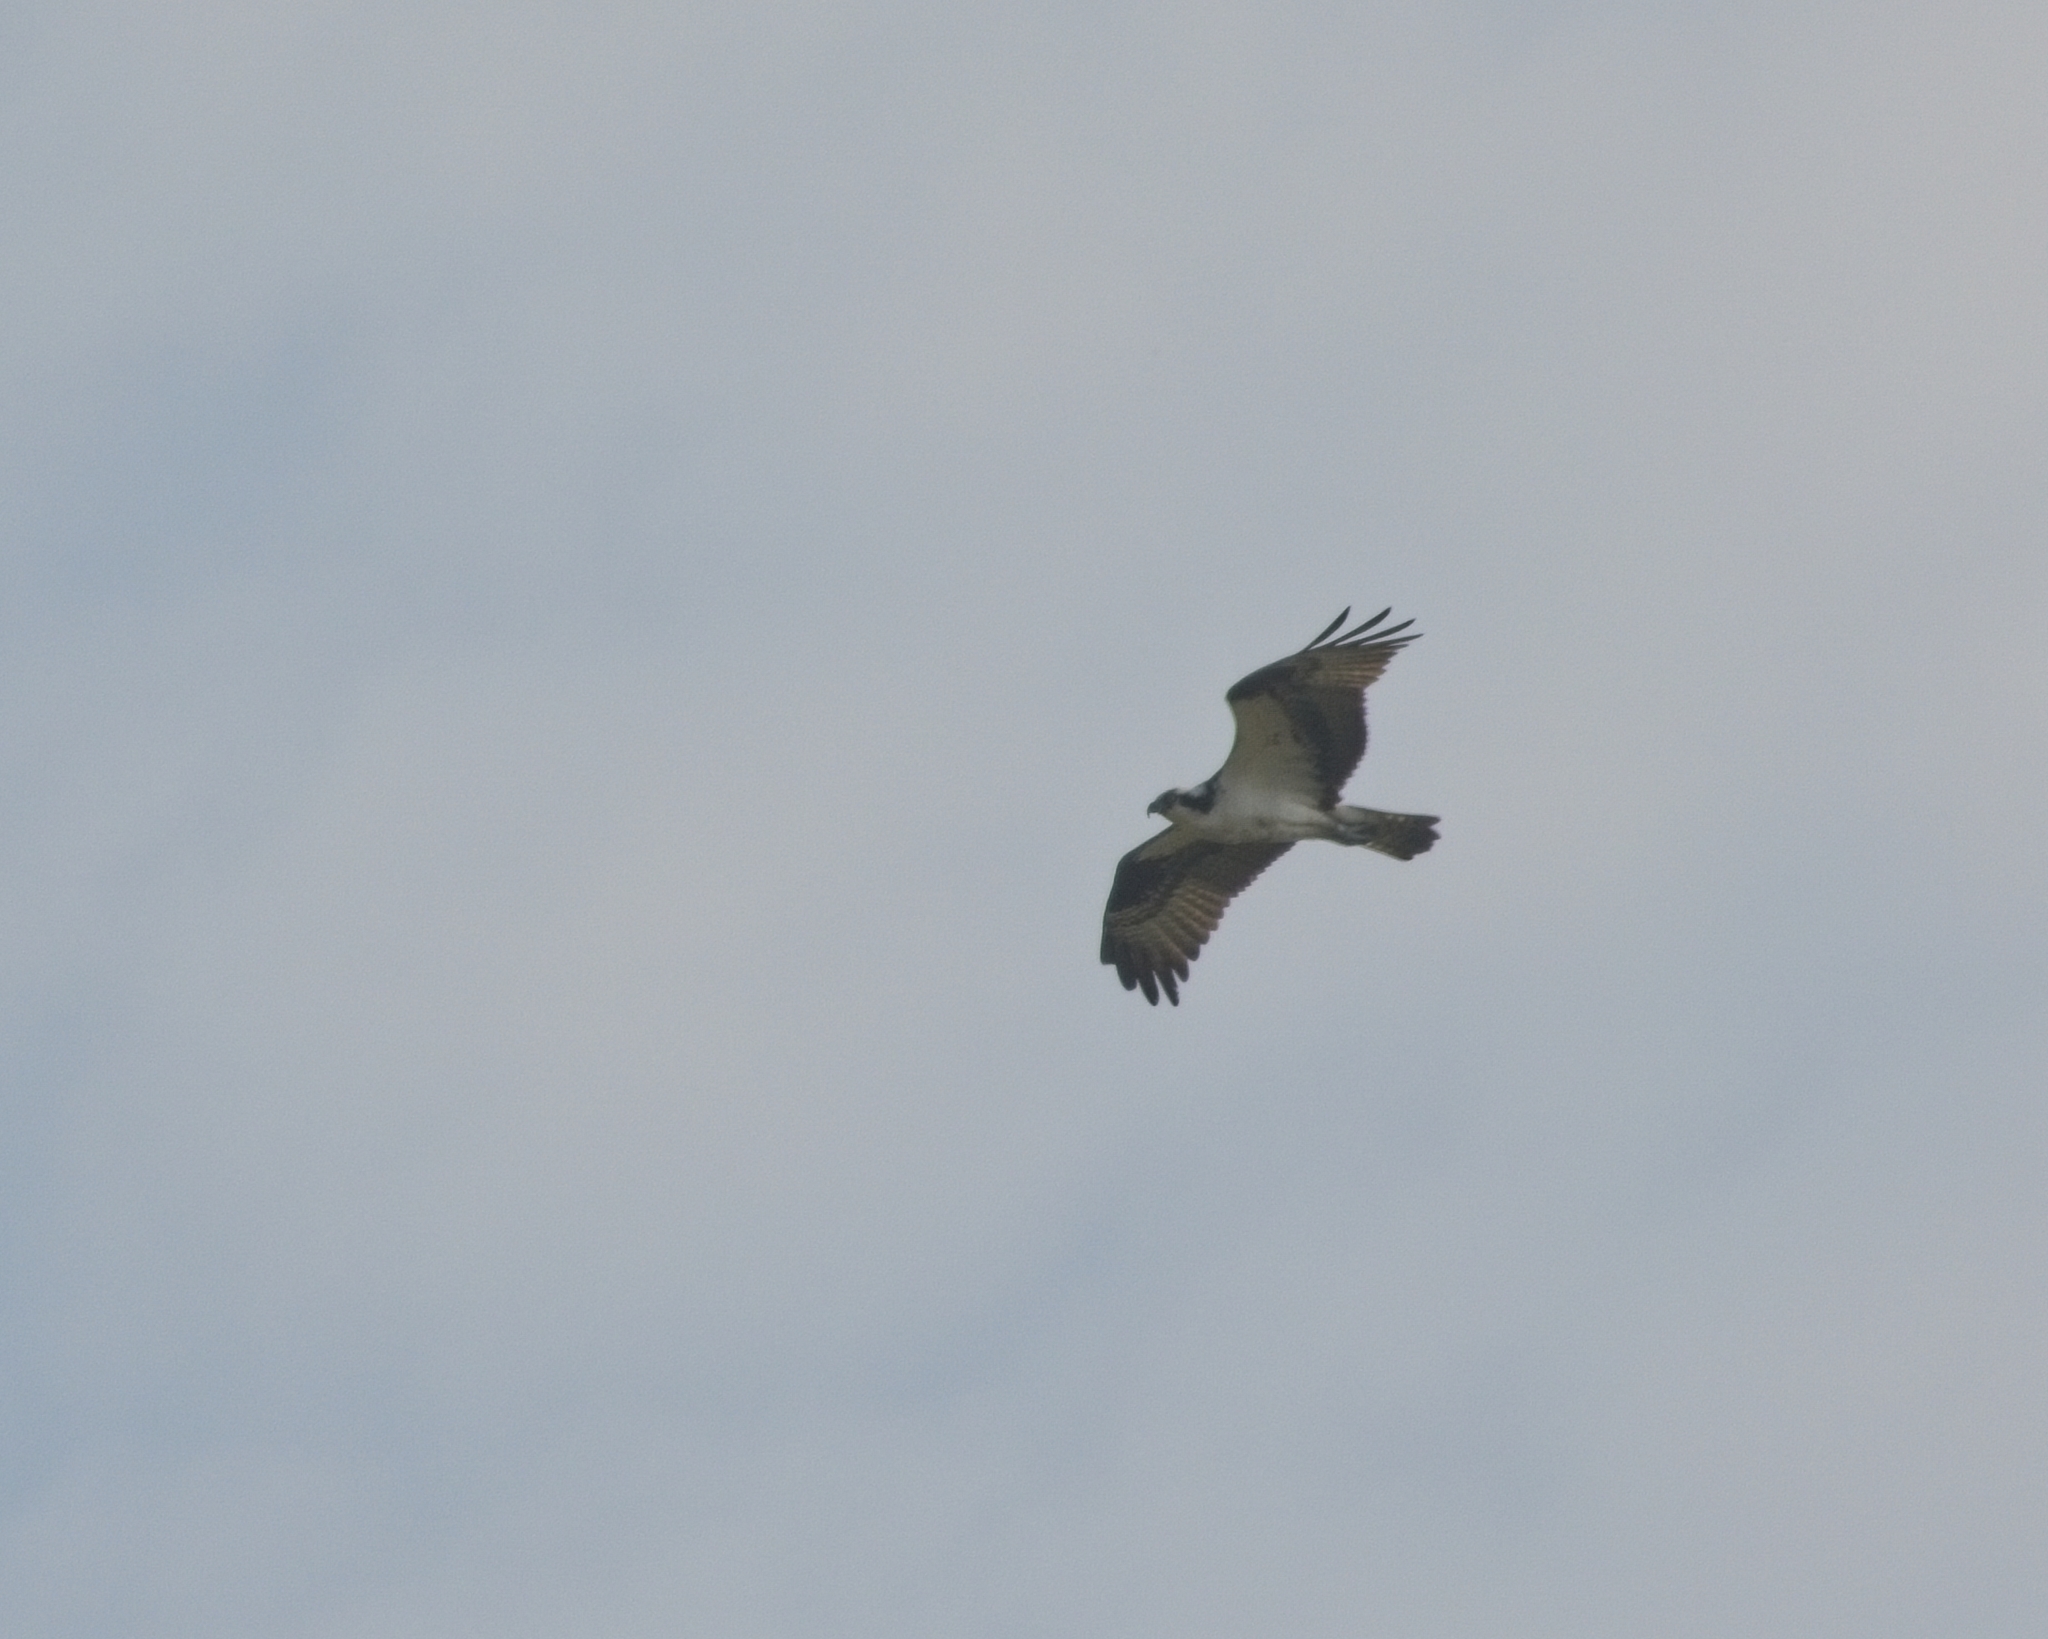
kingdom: Animalia
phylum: Chordata
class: Aves
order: Accipitriformes
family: Pandionidae
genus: Pandion
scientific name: Pandion haliaetus
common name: Osprey
